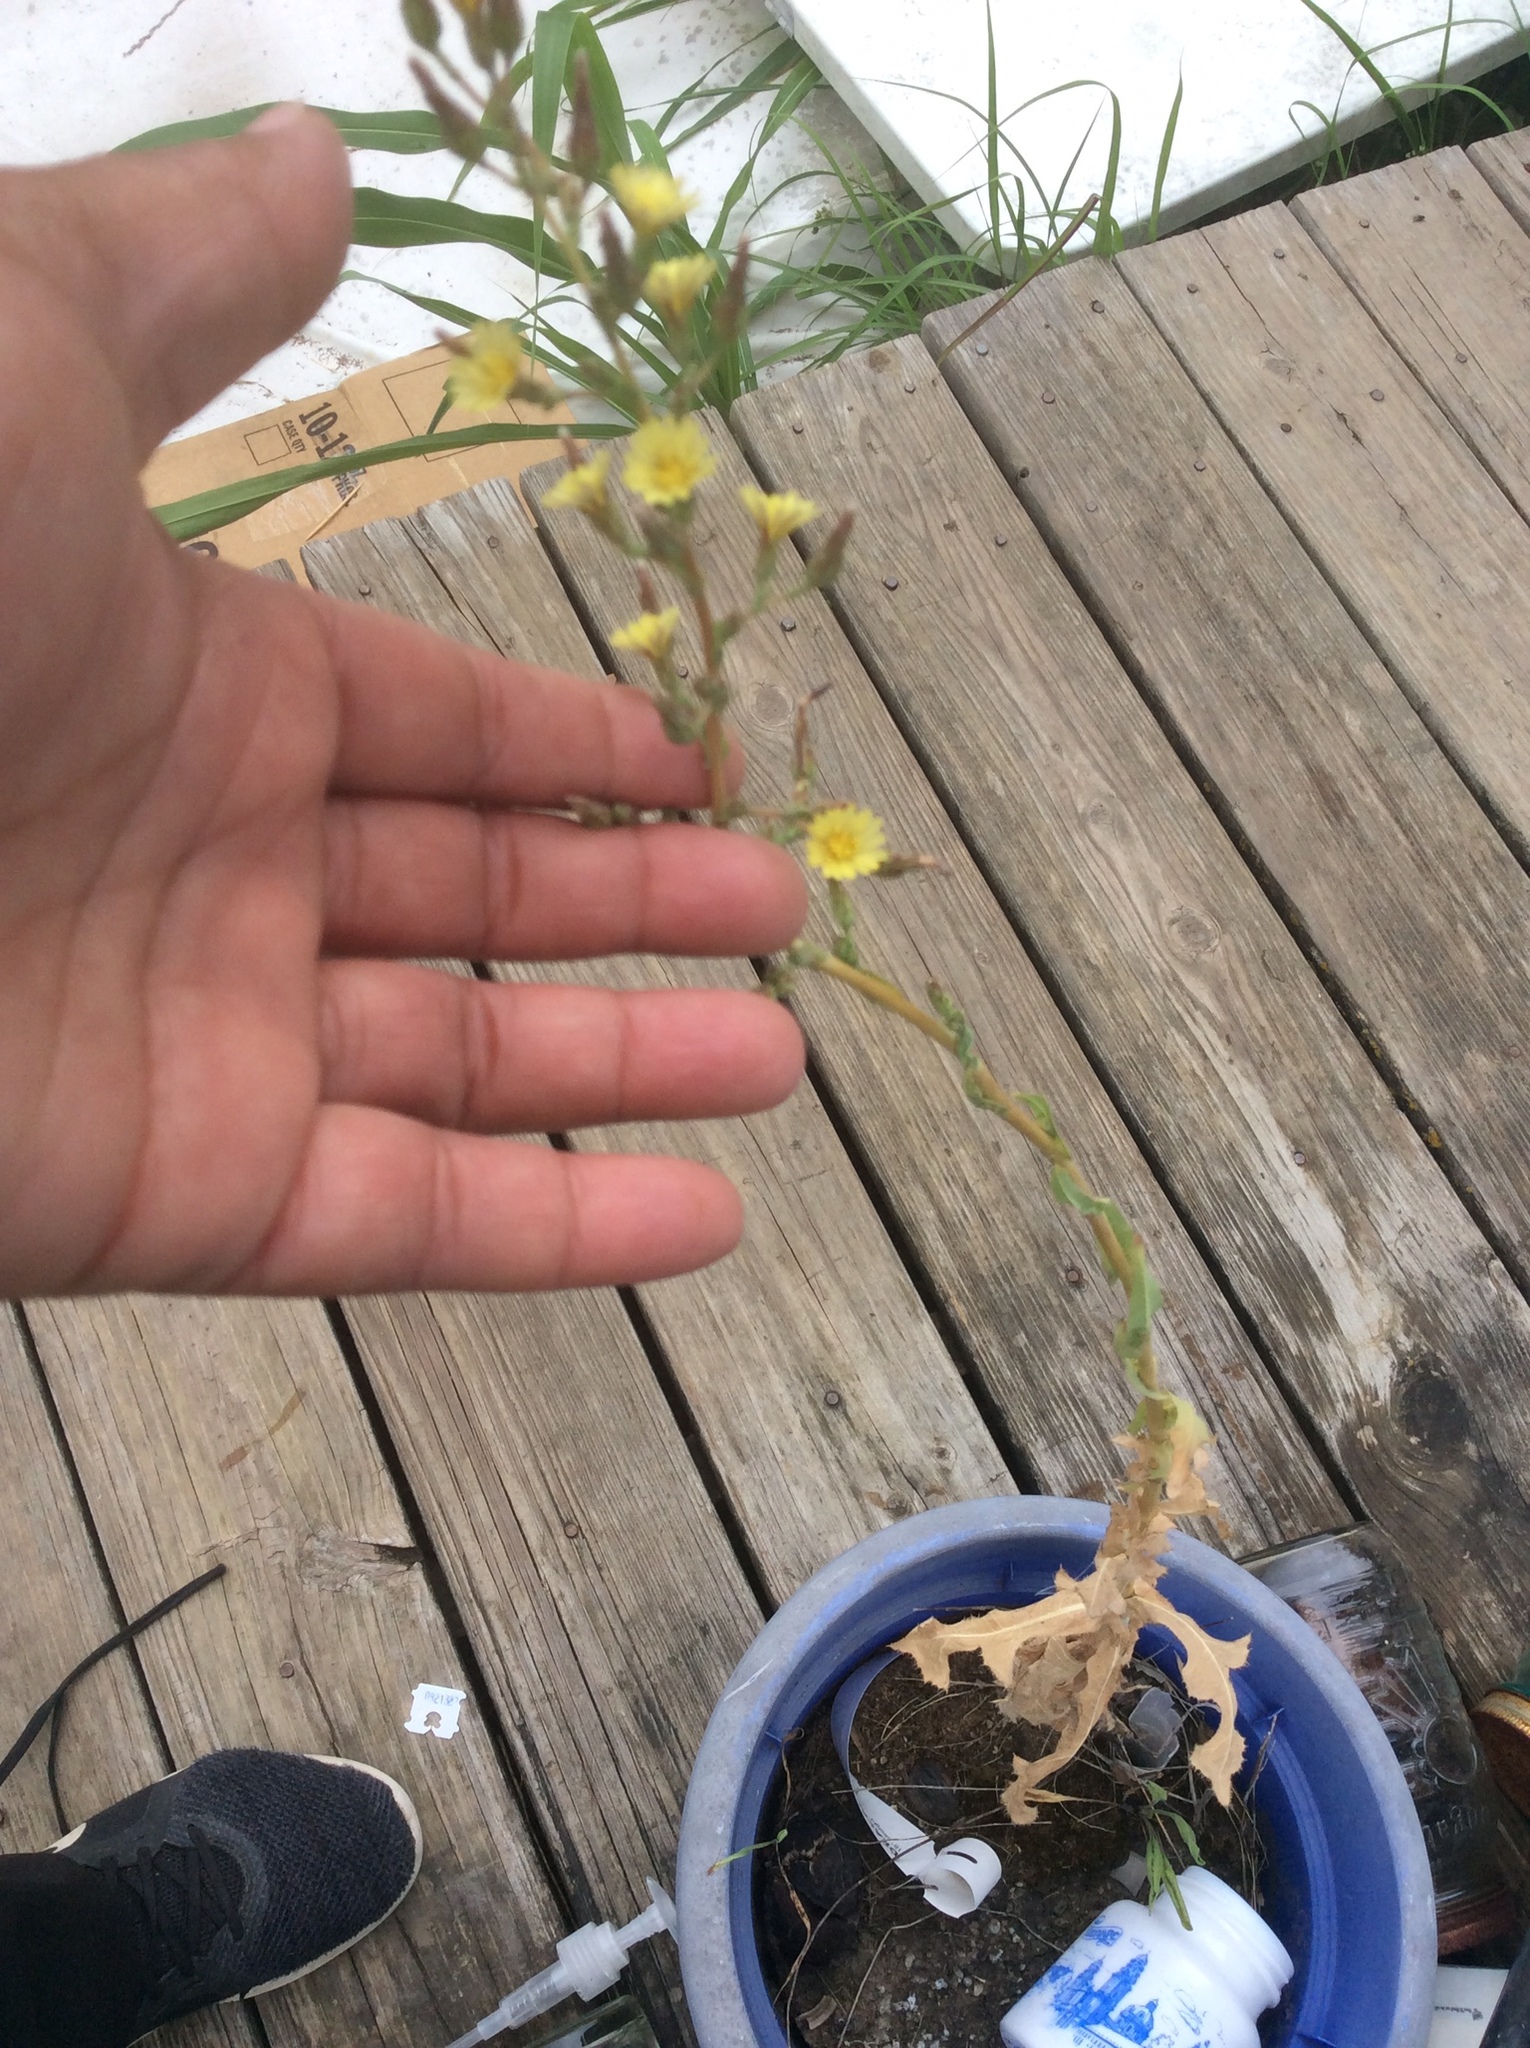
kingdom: Plantae
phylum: Tracheophyta
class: Magnoliopsida
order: Asterales
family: Asteraceae
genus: Lactuca
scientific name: Lactuca serriola
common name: Prickly lettuce
